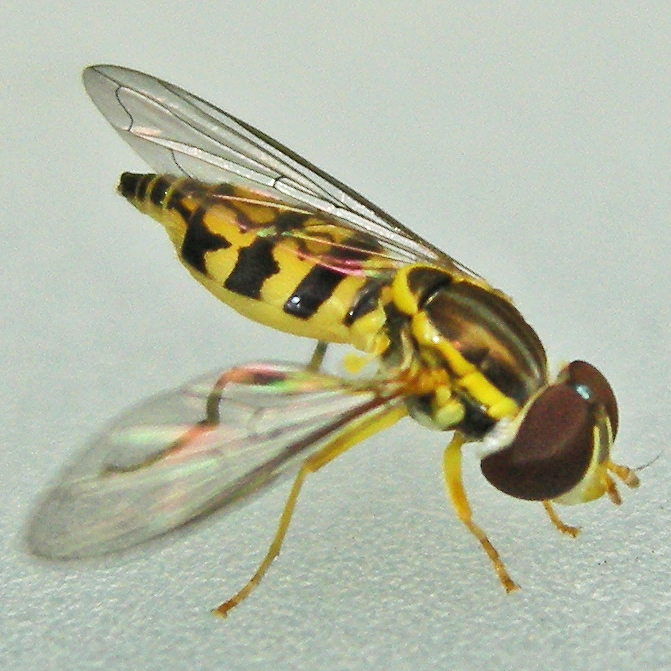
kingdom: Animalia
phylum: Arthropoda
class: Insecta
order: Diptera
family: Syrphidae
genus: Toxomerus
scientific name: Toxomerus geminatus
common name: Eastern calligrapher
